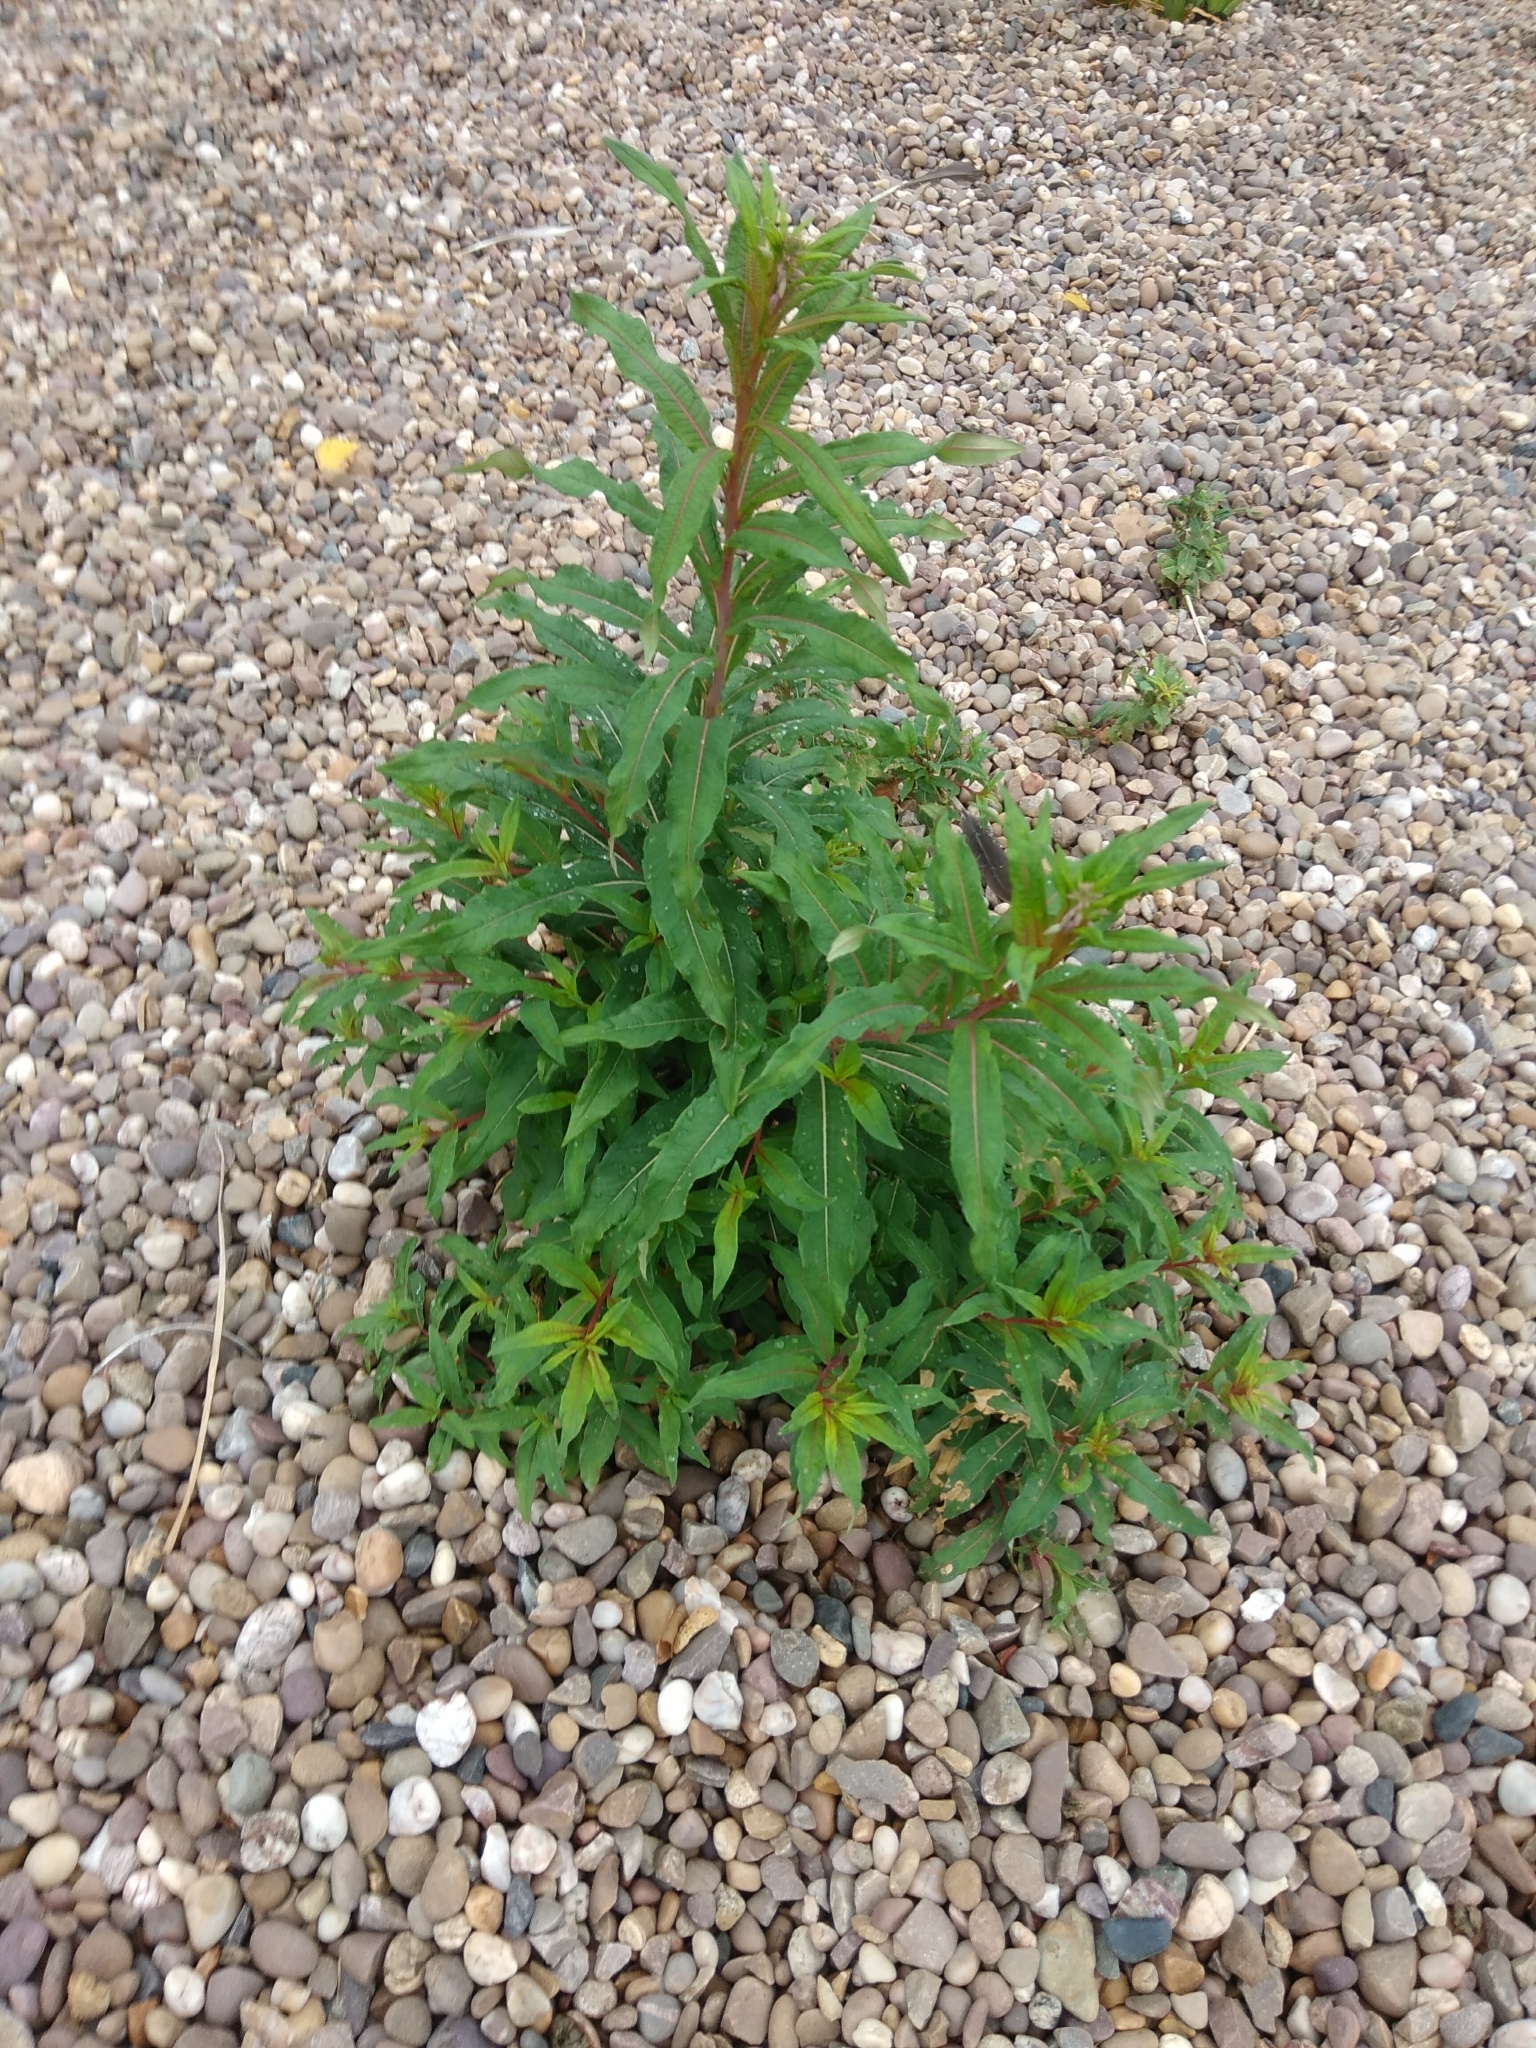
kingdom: Plantae
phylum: Tracheophyta
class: Magnoliopsida
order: Myrtales
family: Onagraceae
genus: Chamaenerion
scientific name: Chamaenerion angustifolium
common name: Fireweed
